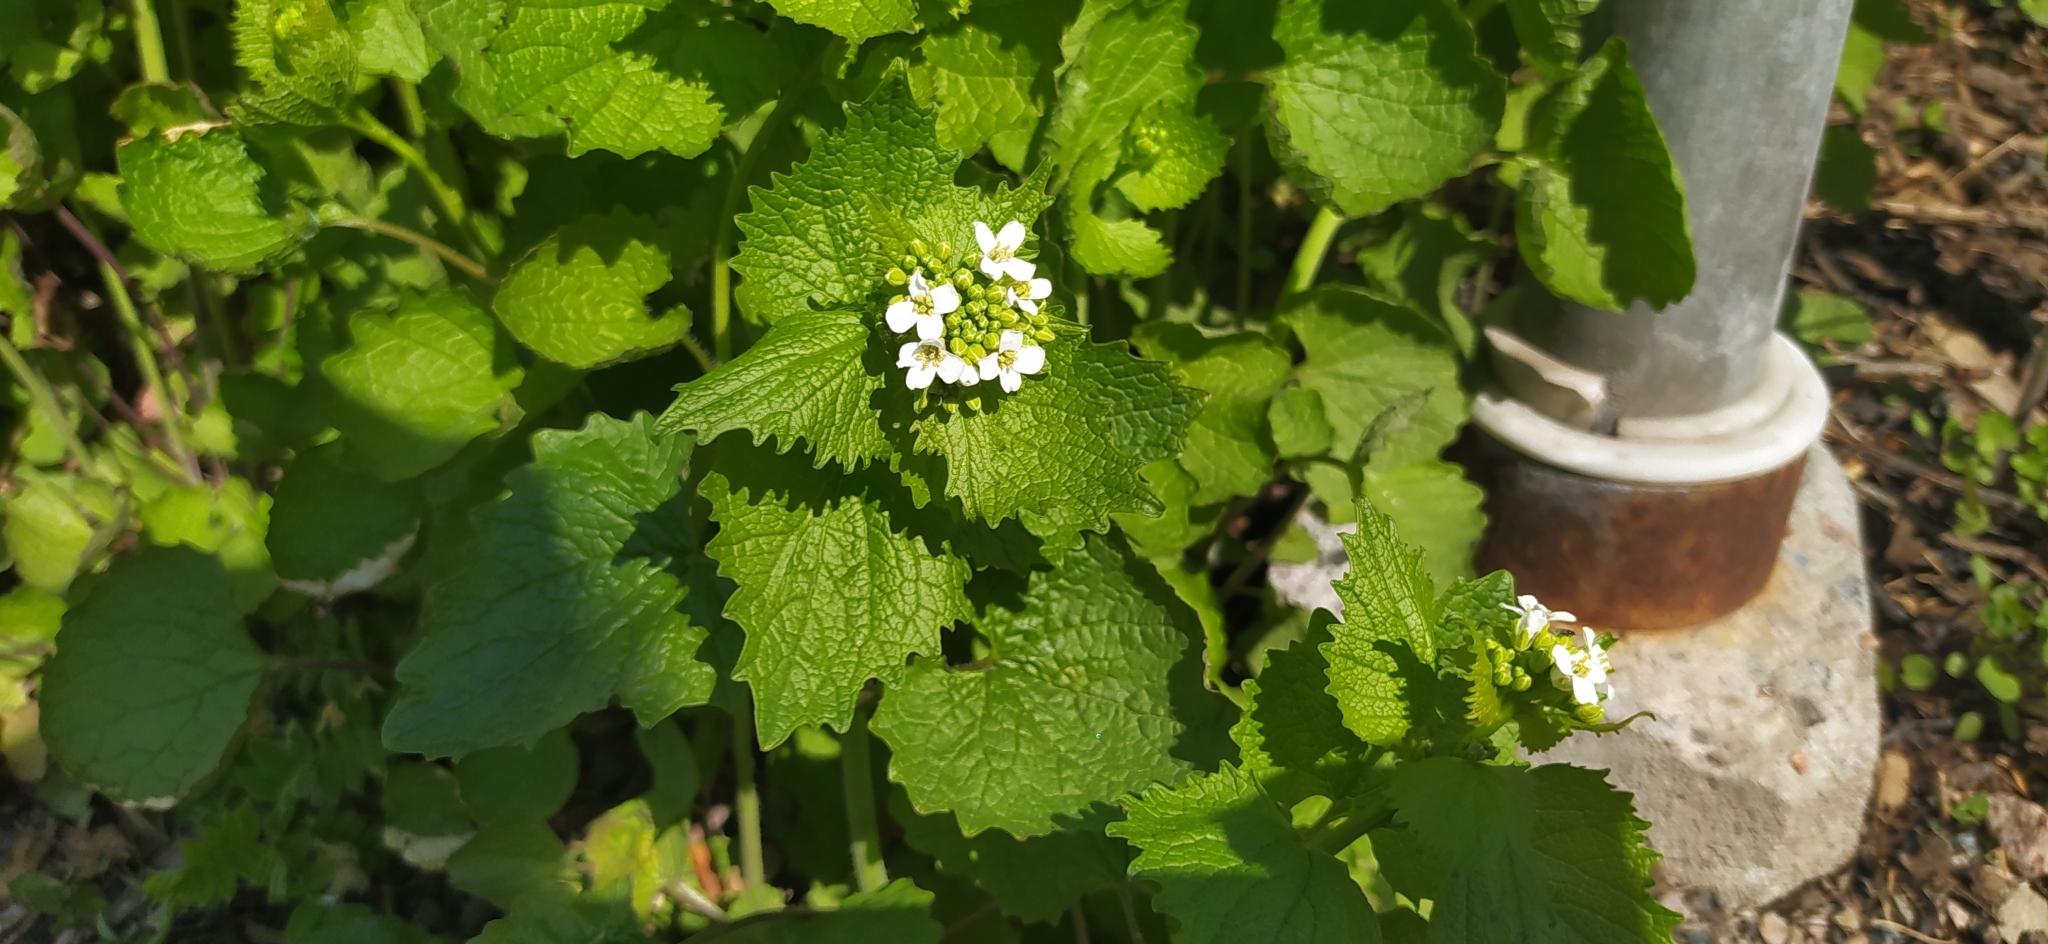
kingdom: Plantae
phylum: Tracheophyta
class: Magnoliopsida
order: Brassicales
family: Brassicaceae
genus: Alliaria
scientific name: Alliaria petiolata
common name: Garlic mustard
